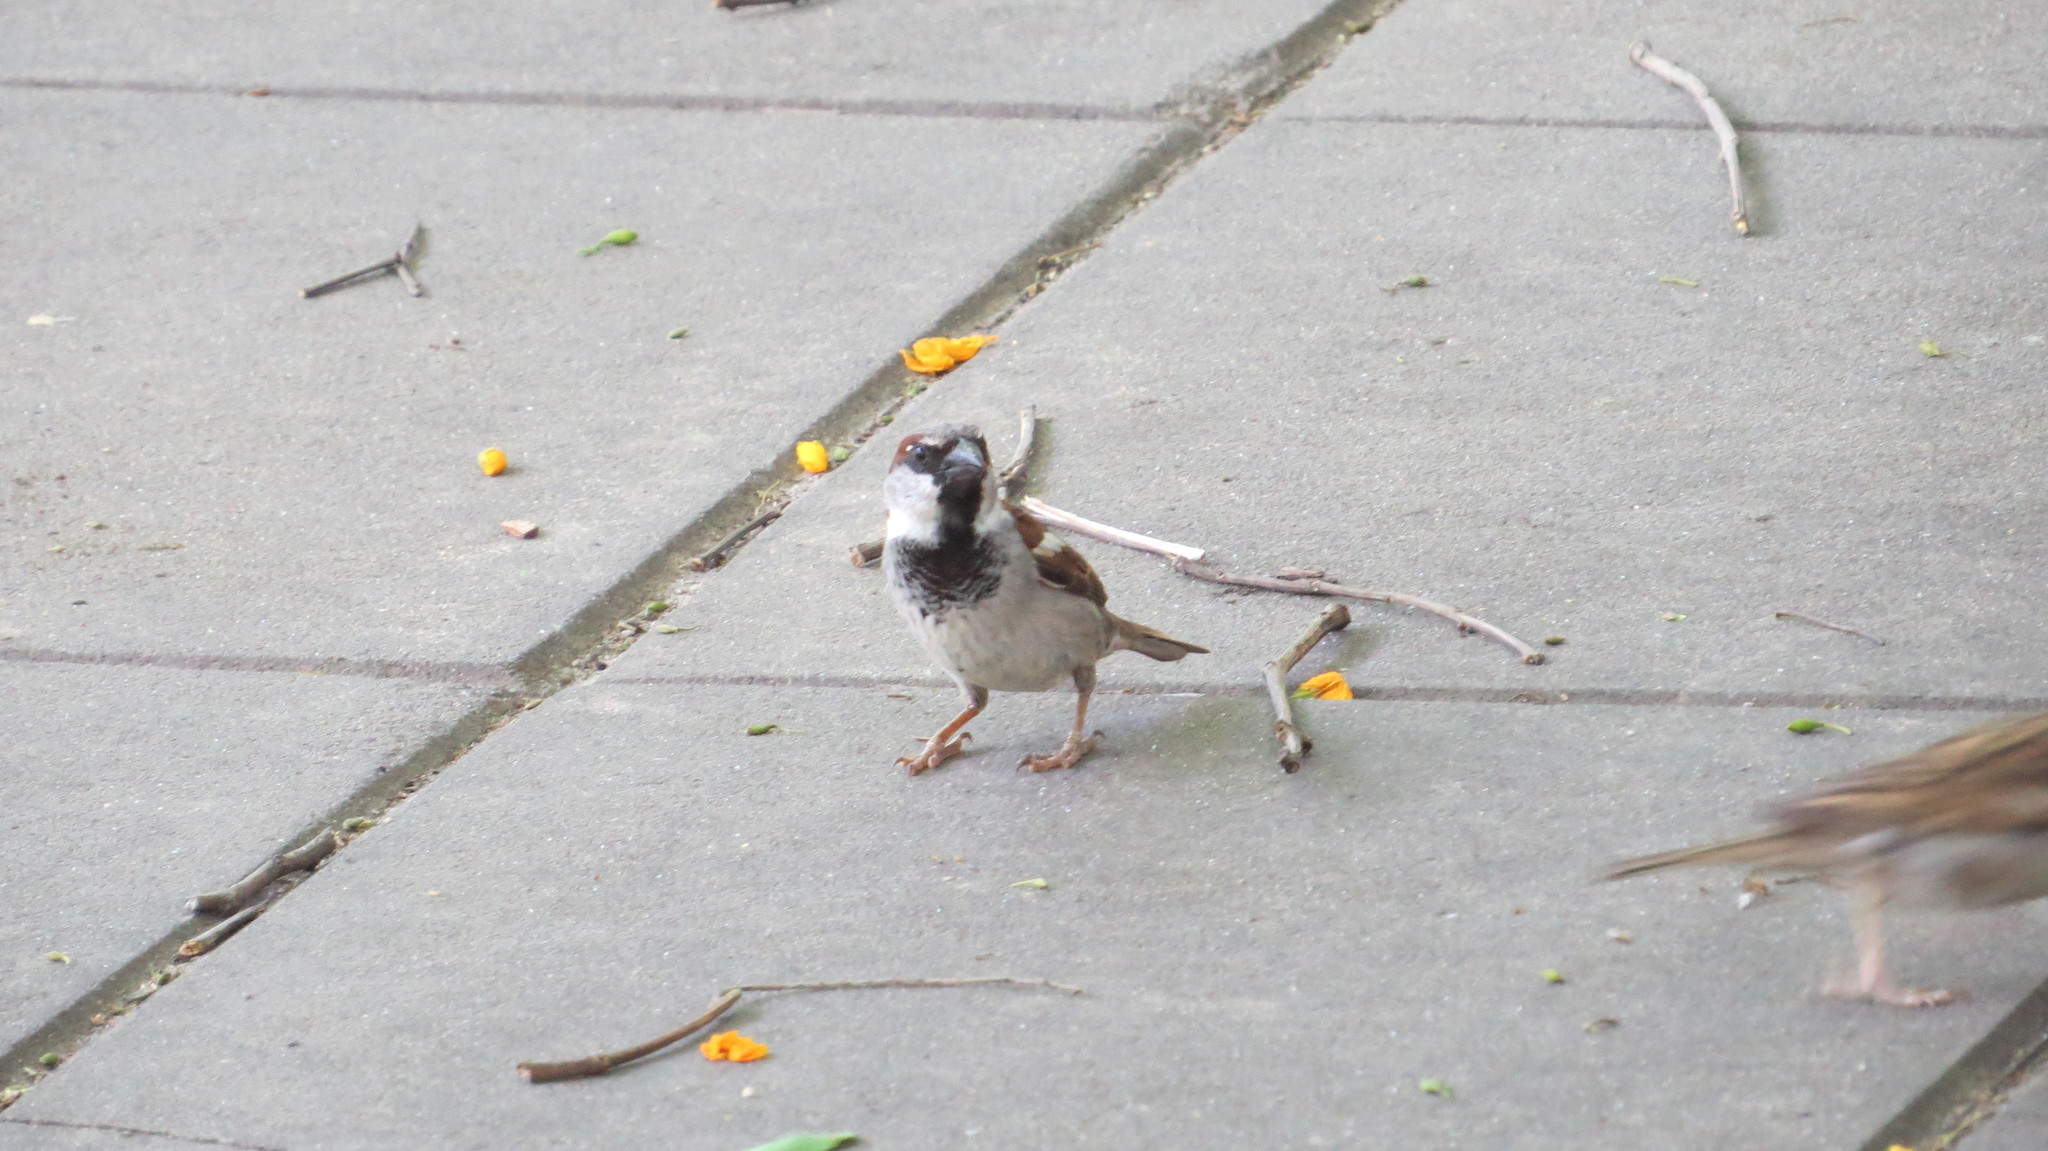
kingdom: Animalia
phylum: Chordata
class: Aves
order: Passeriformes
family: Passeridae
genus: Passer
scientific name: Passer domesticus
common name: House sparrow
